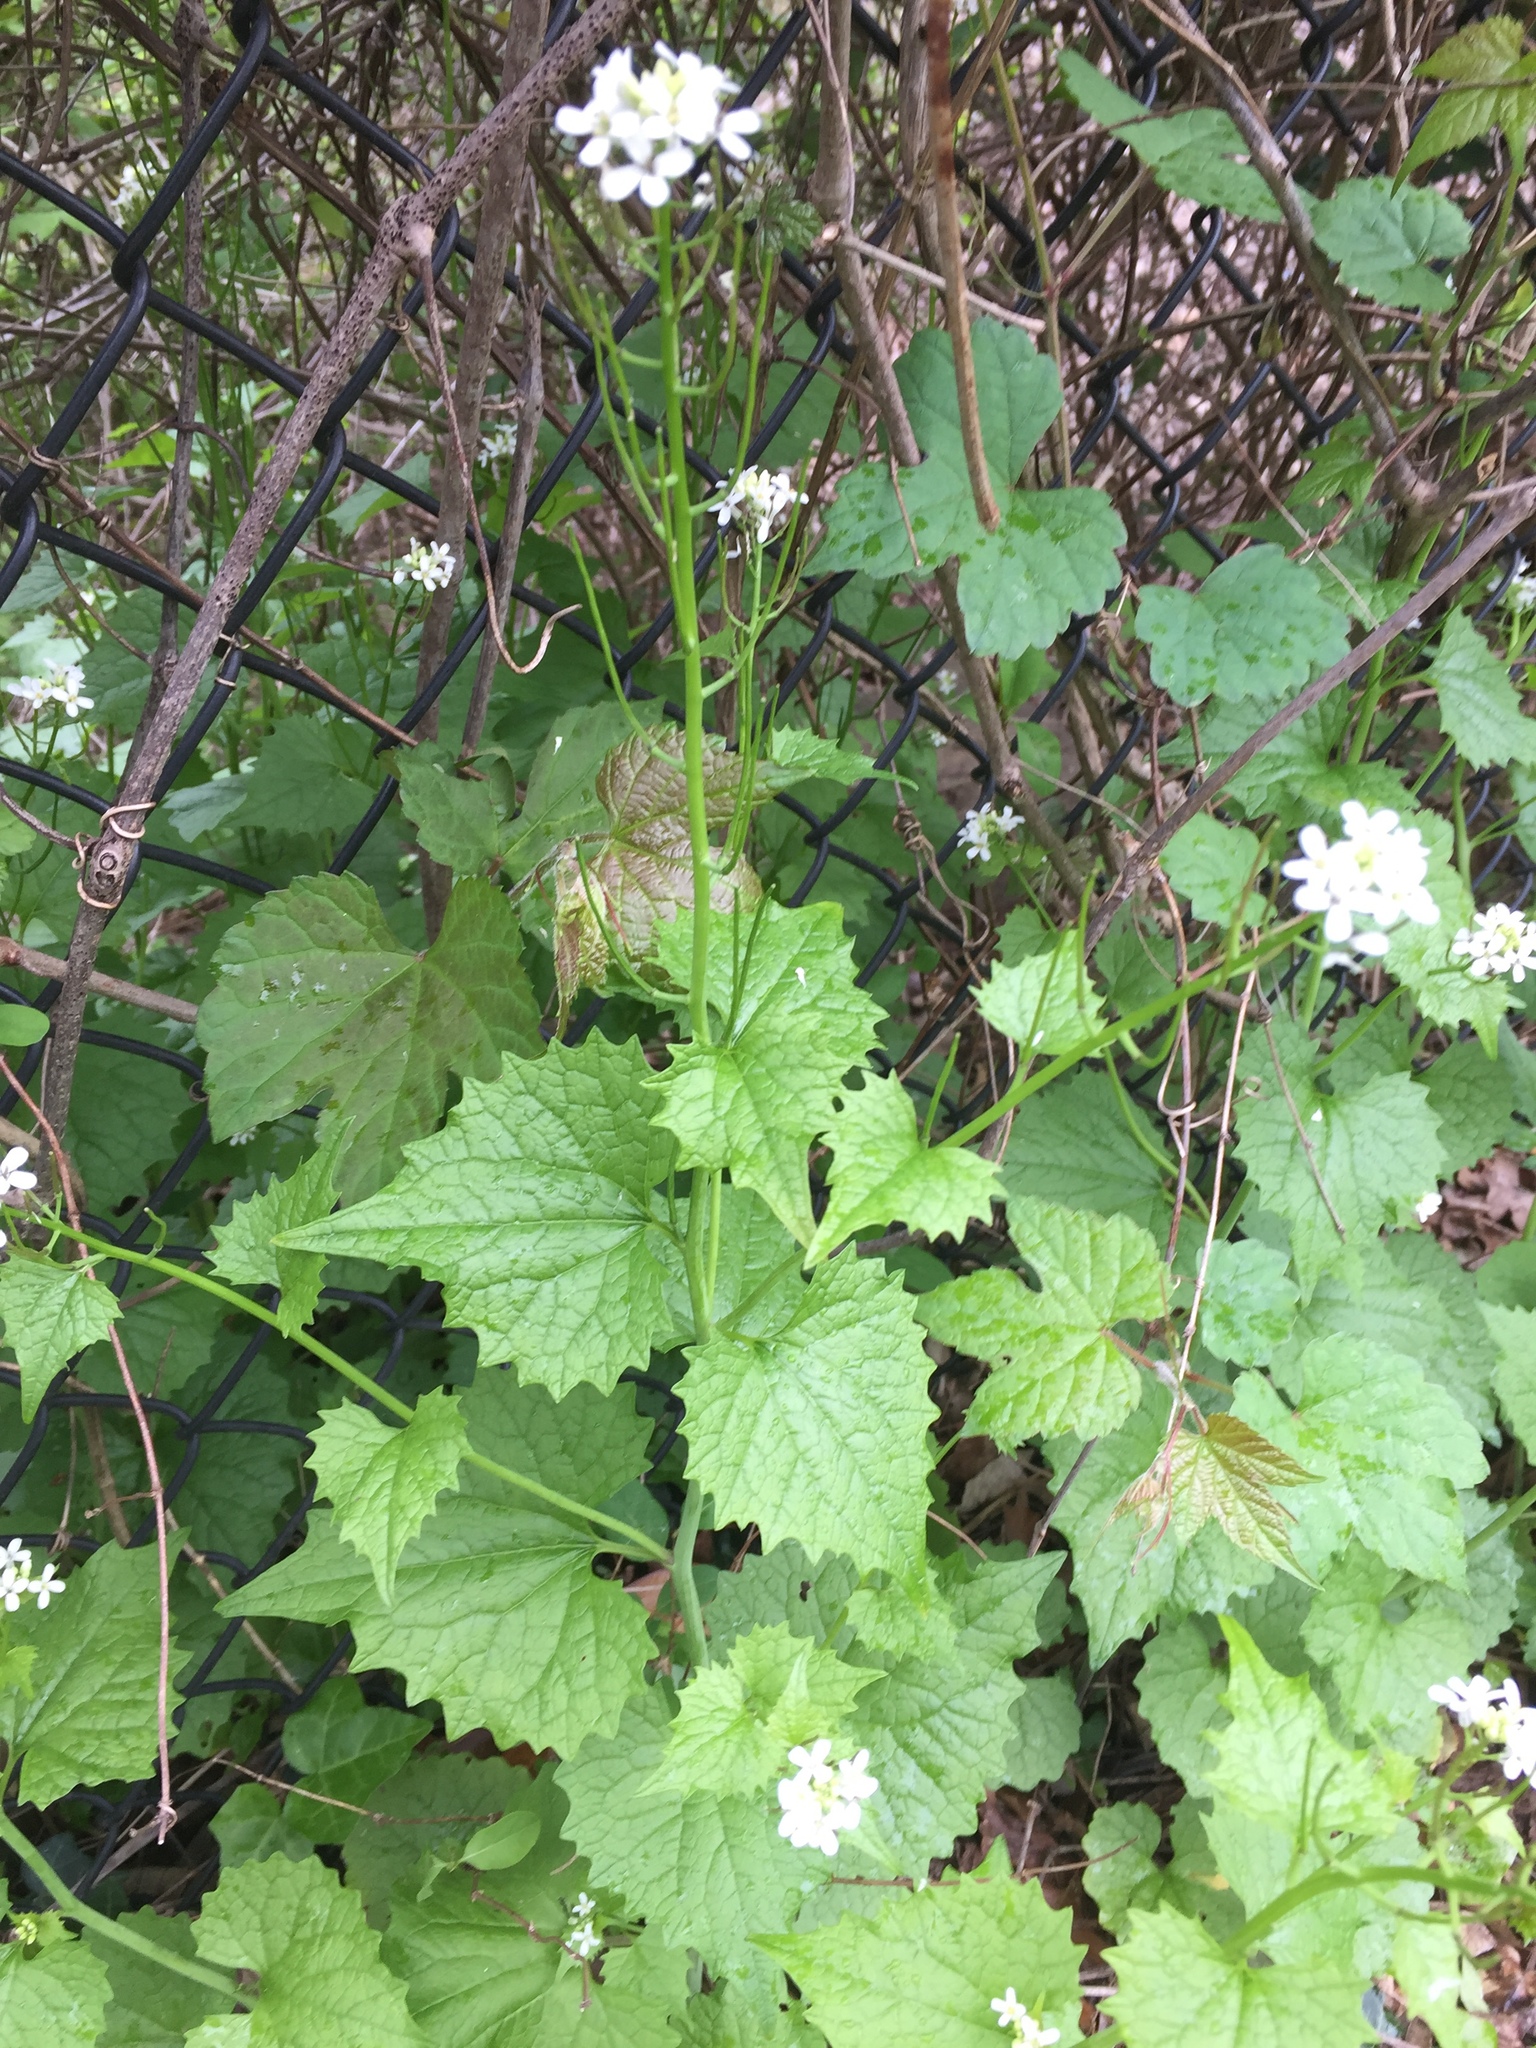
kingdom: Plantae
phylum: Tracheophyta
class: Magnoliopsida
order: Brassicales
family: Brassicaceae
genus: Alliaria
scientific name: Alliaria petiolata
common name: Garlic mustard
